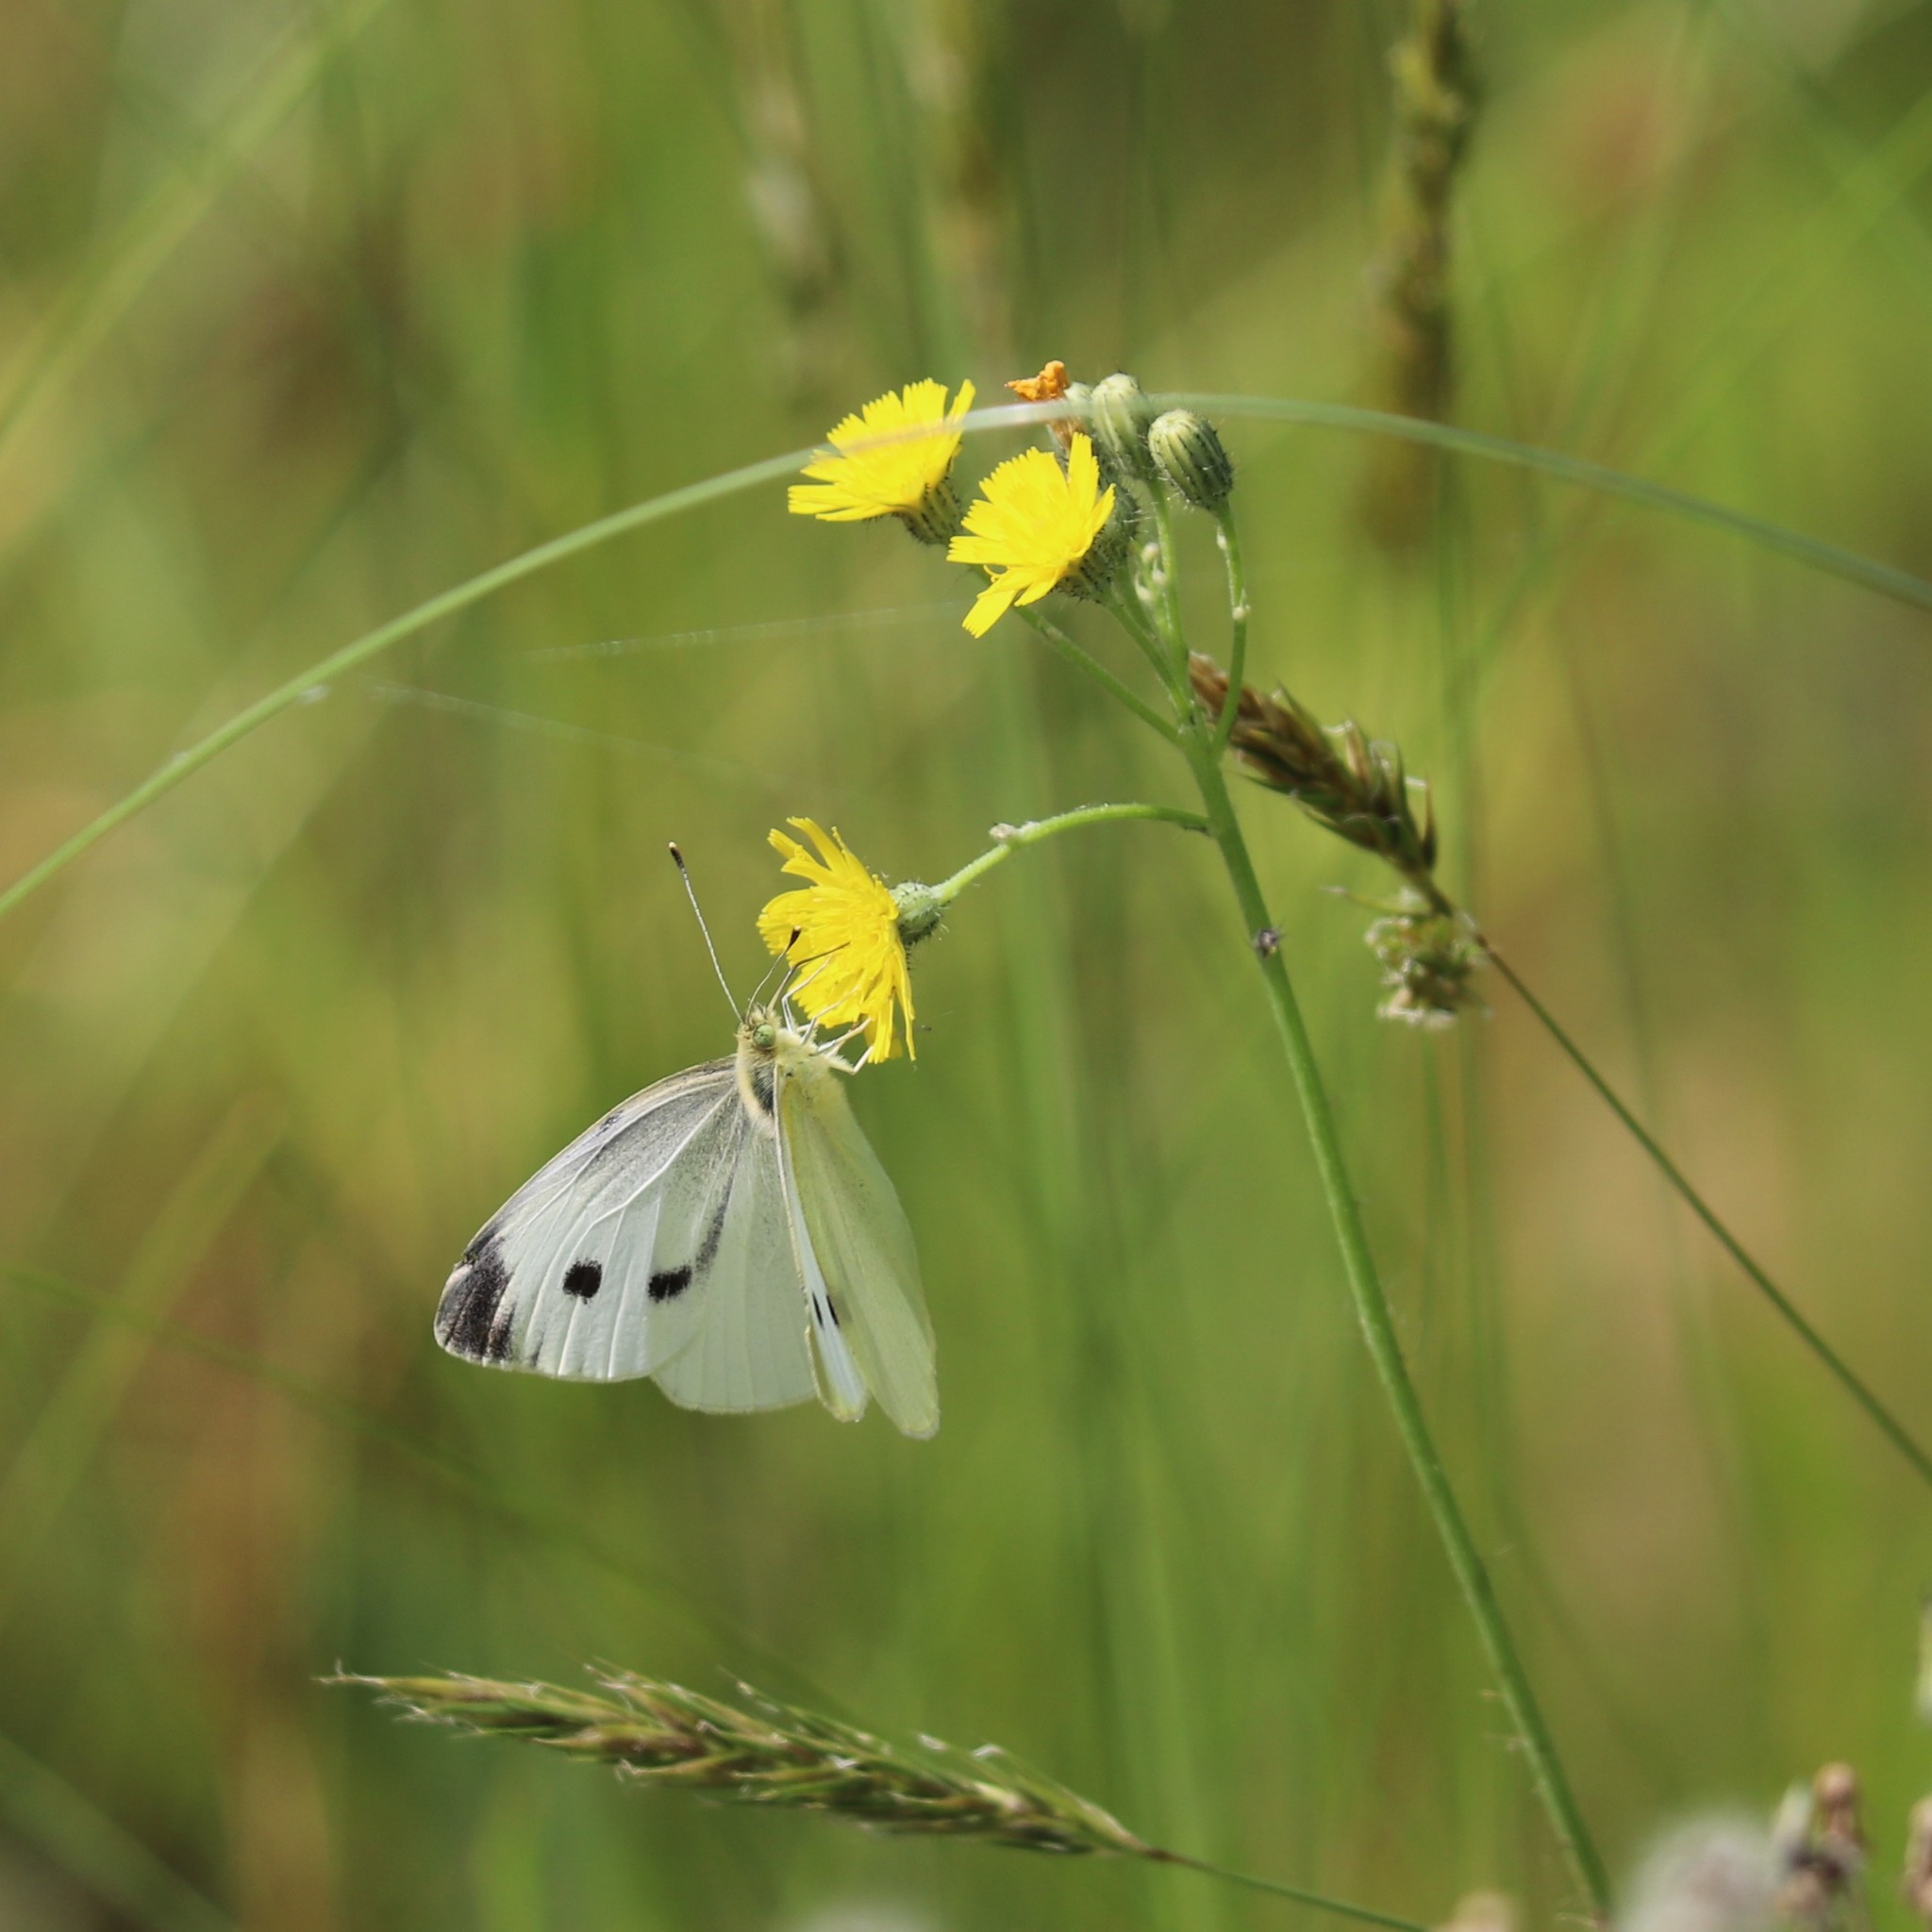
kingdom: Animalia
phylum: Arthropoda
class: Insecta
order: Lepidoptera
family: Pieridae
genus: Pieris
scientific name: Pieris rapae
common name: Small white
